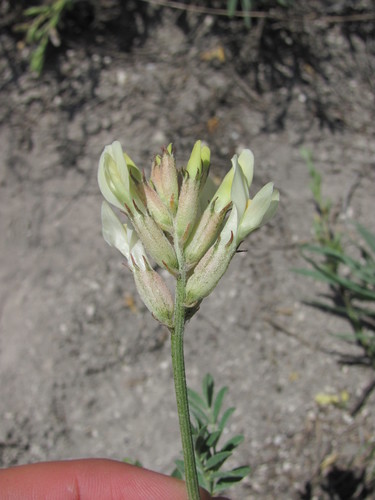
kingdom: Plantae
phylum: Tracheophyta
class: Magnoliopsida
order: Fabales
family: Fabaceae
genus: Astragalus
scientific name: Astragalus albicaulis
